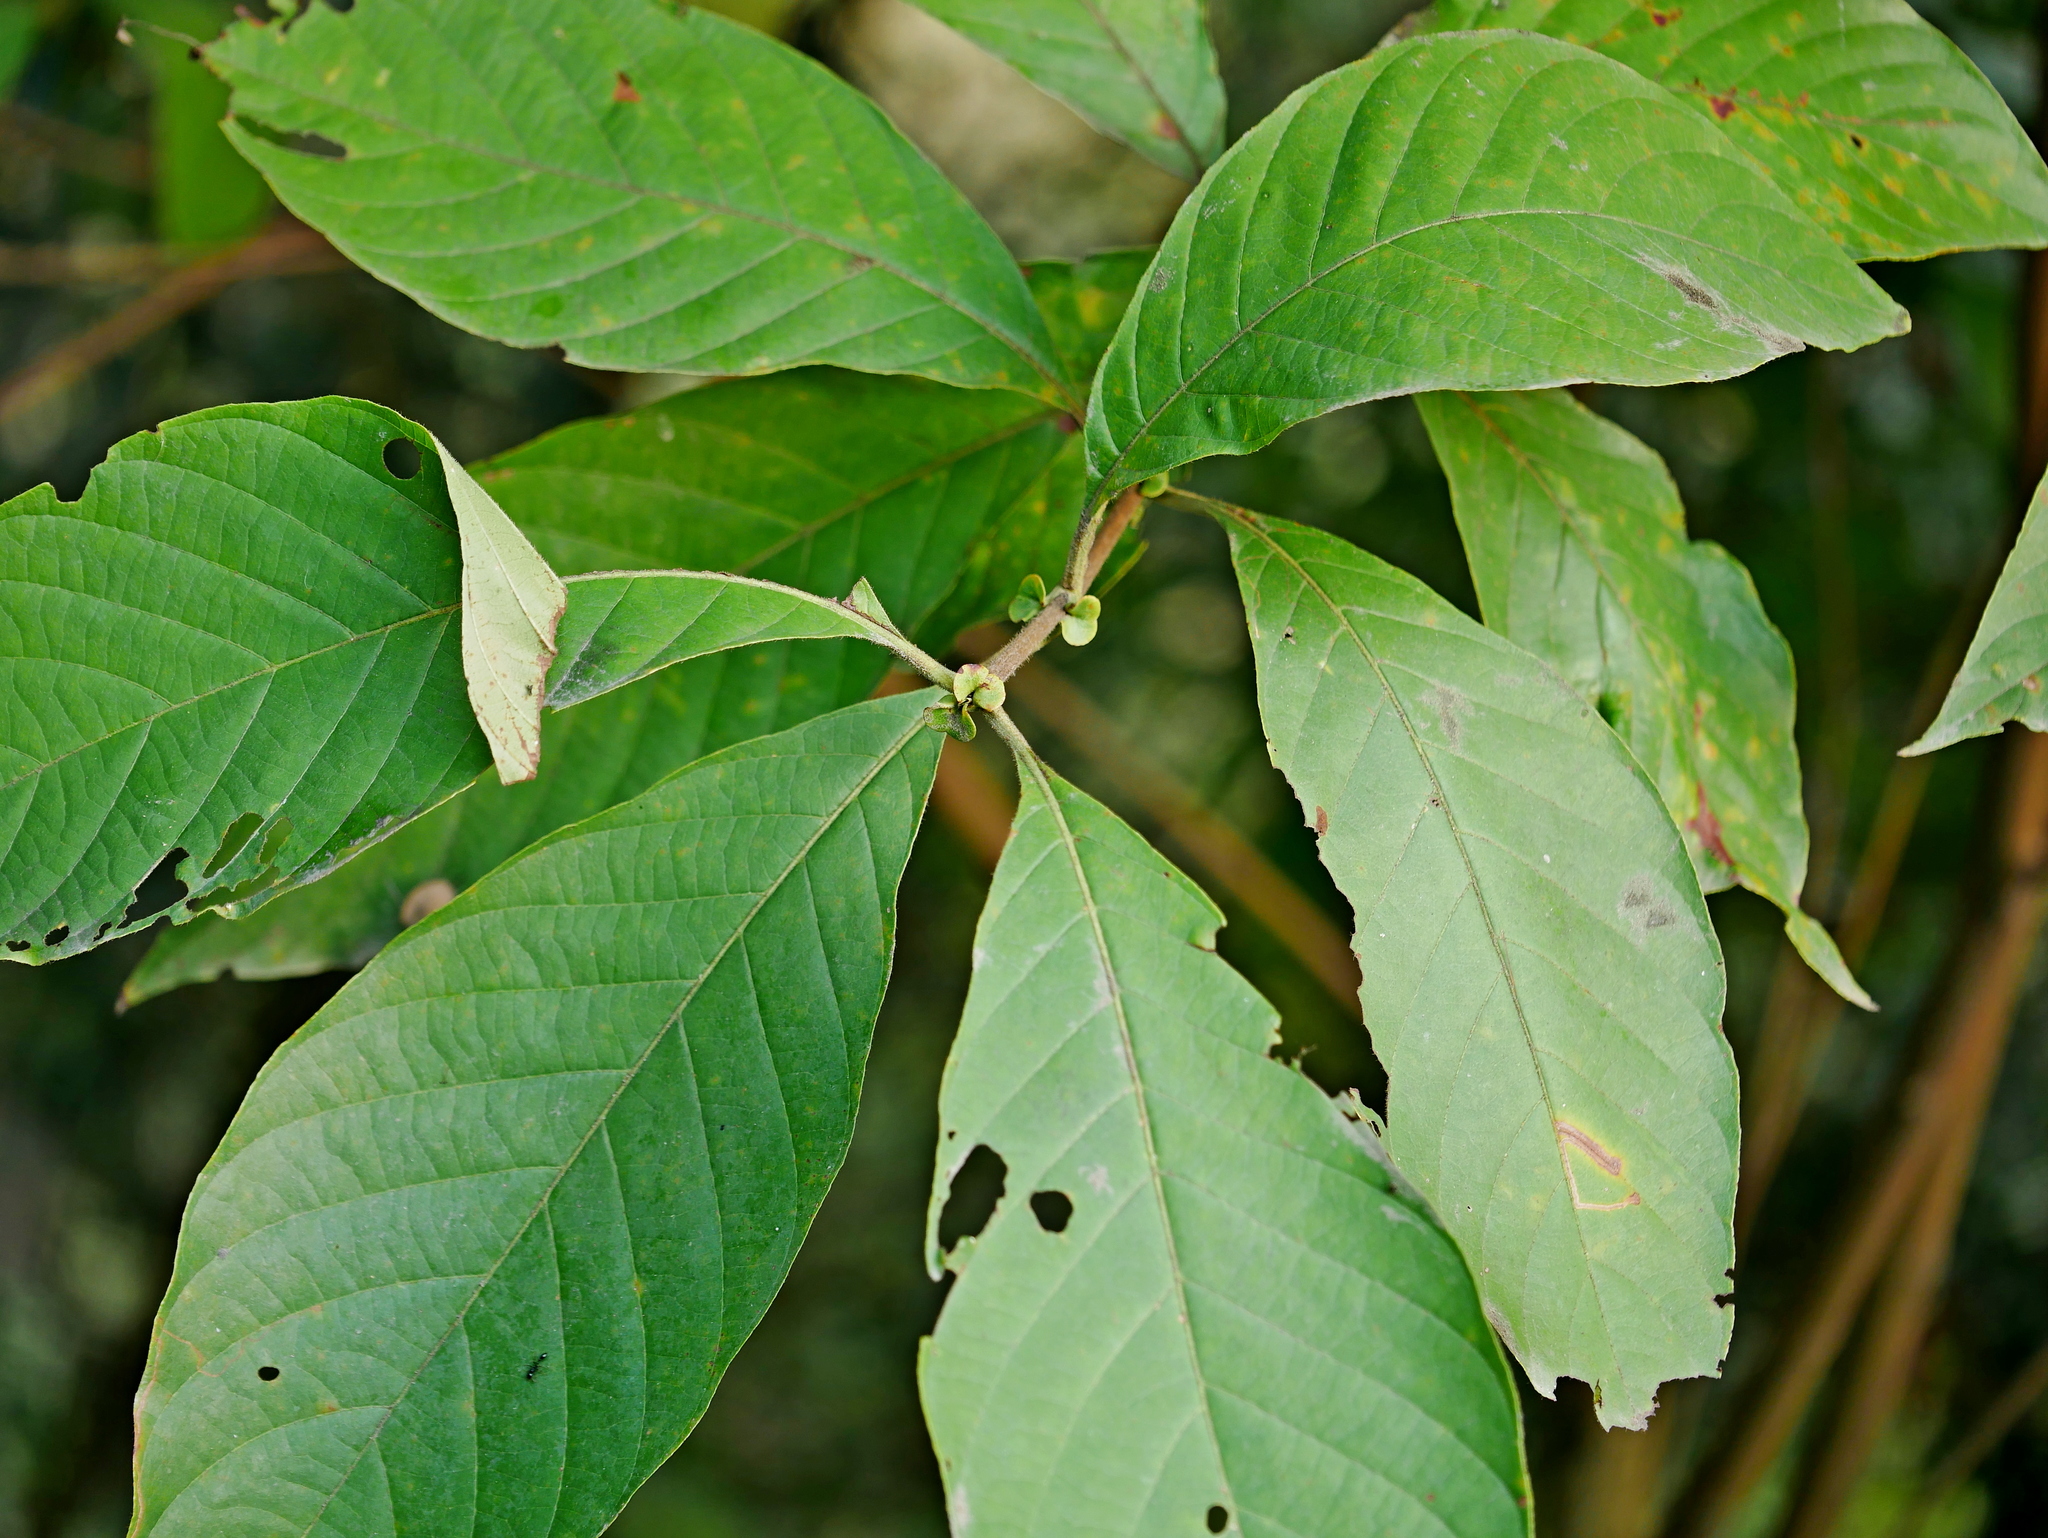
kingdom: Plantae
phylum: Tracheophyta
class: Magnoliopsida
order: Gentianales
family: Rubiaceae
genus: Wendlandia
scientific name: Wendlandia uvariifolia
